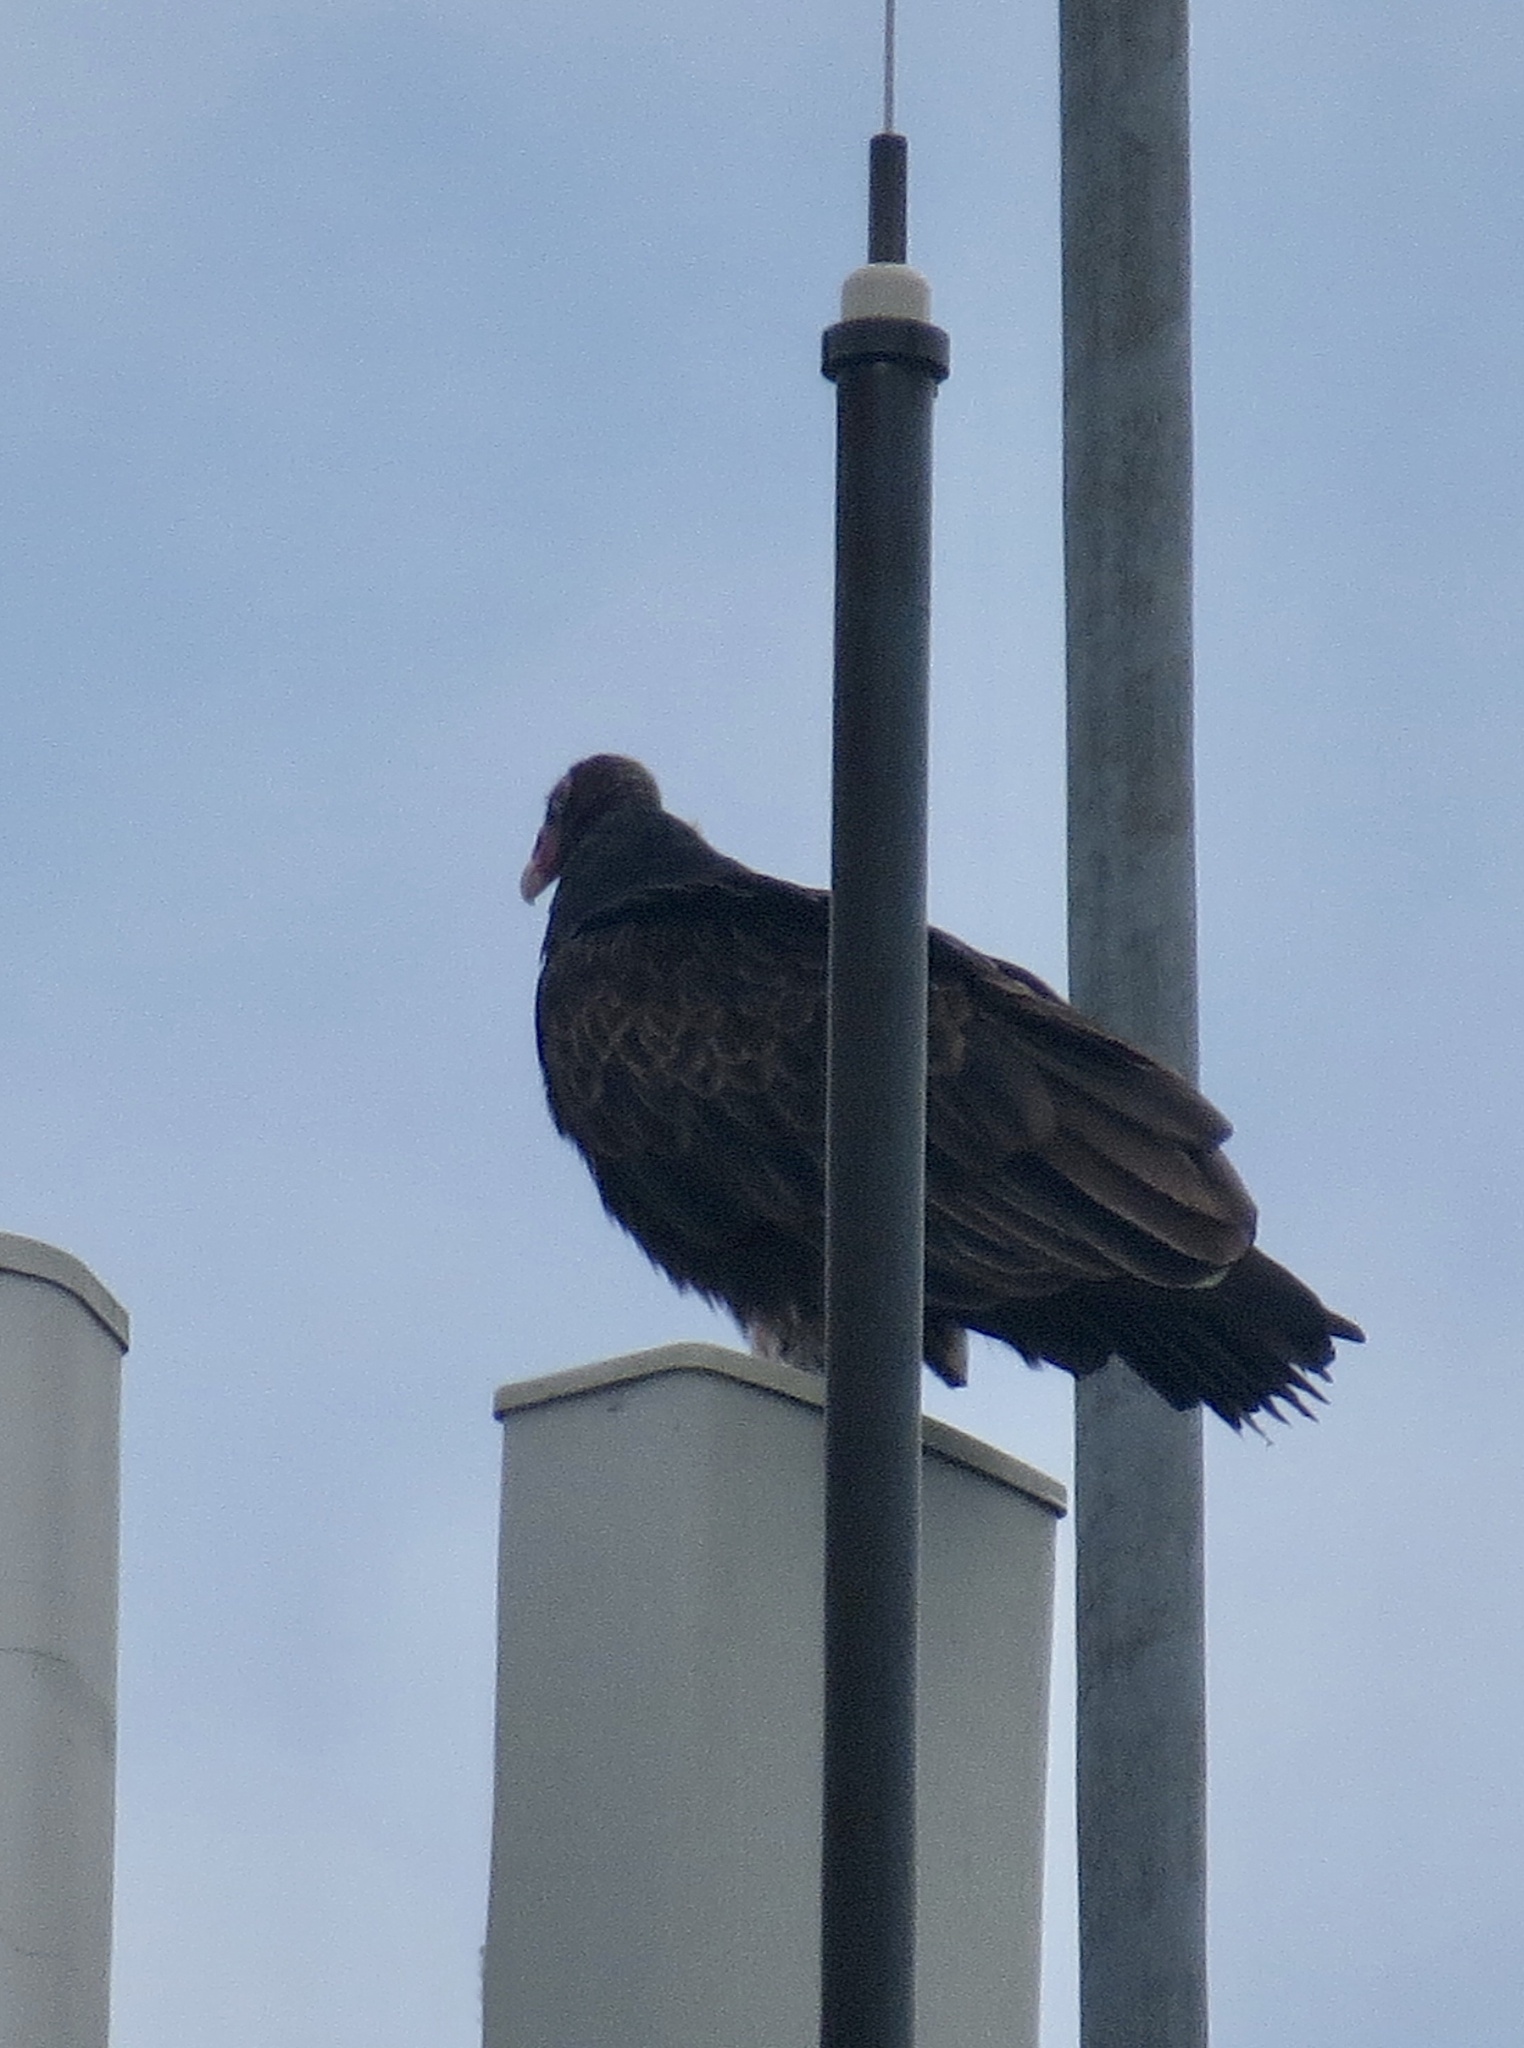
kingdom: Animalia
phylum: Chordata
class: Aves
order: Accipitriformes
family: Cathartidae
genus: Cathartes
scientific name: Cathartes aura
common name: Turkey vulture
